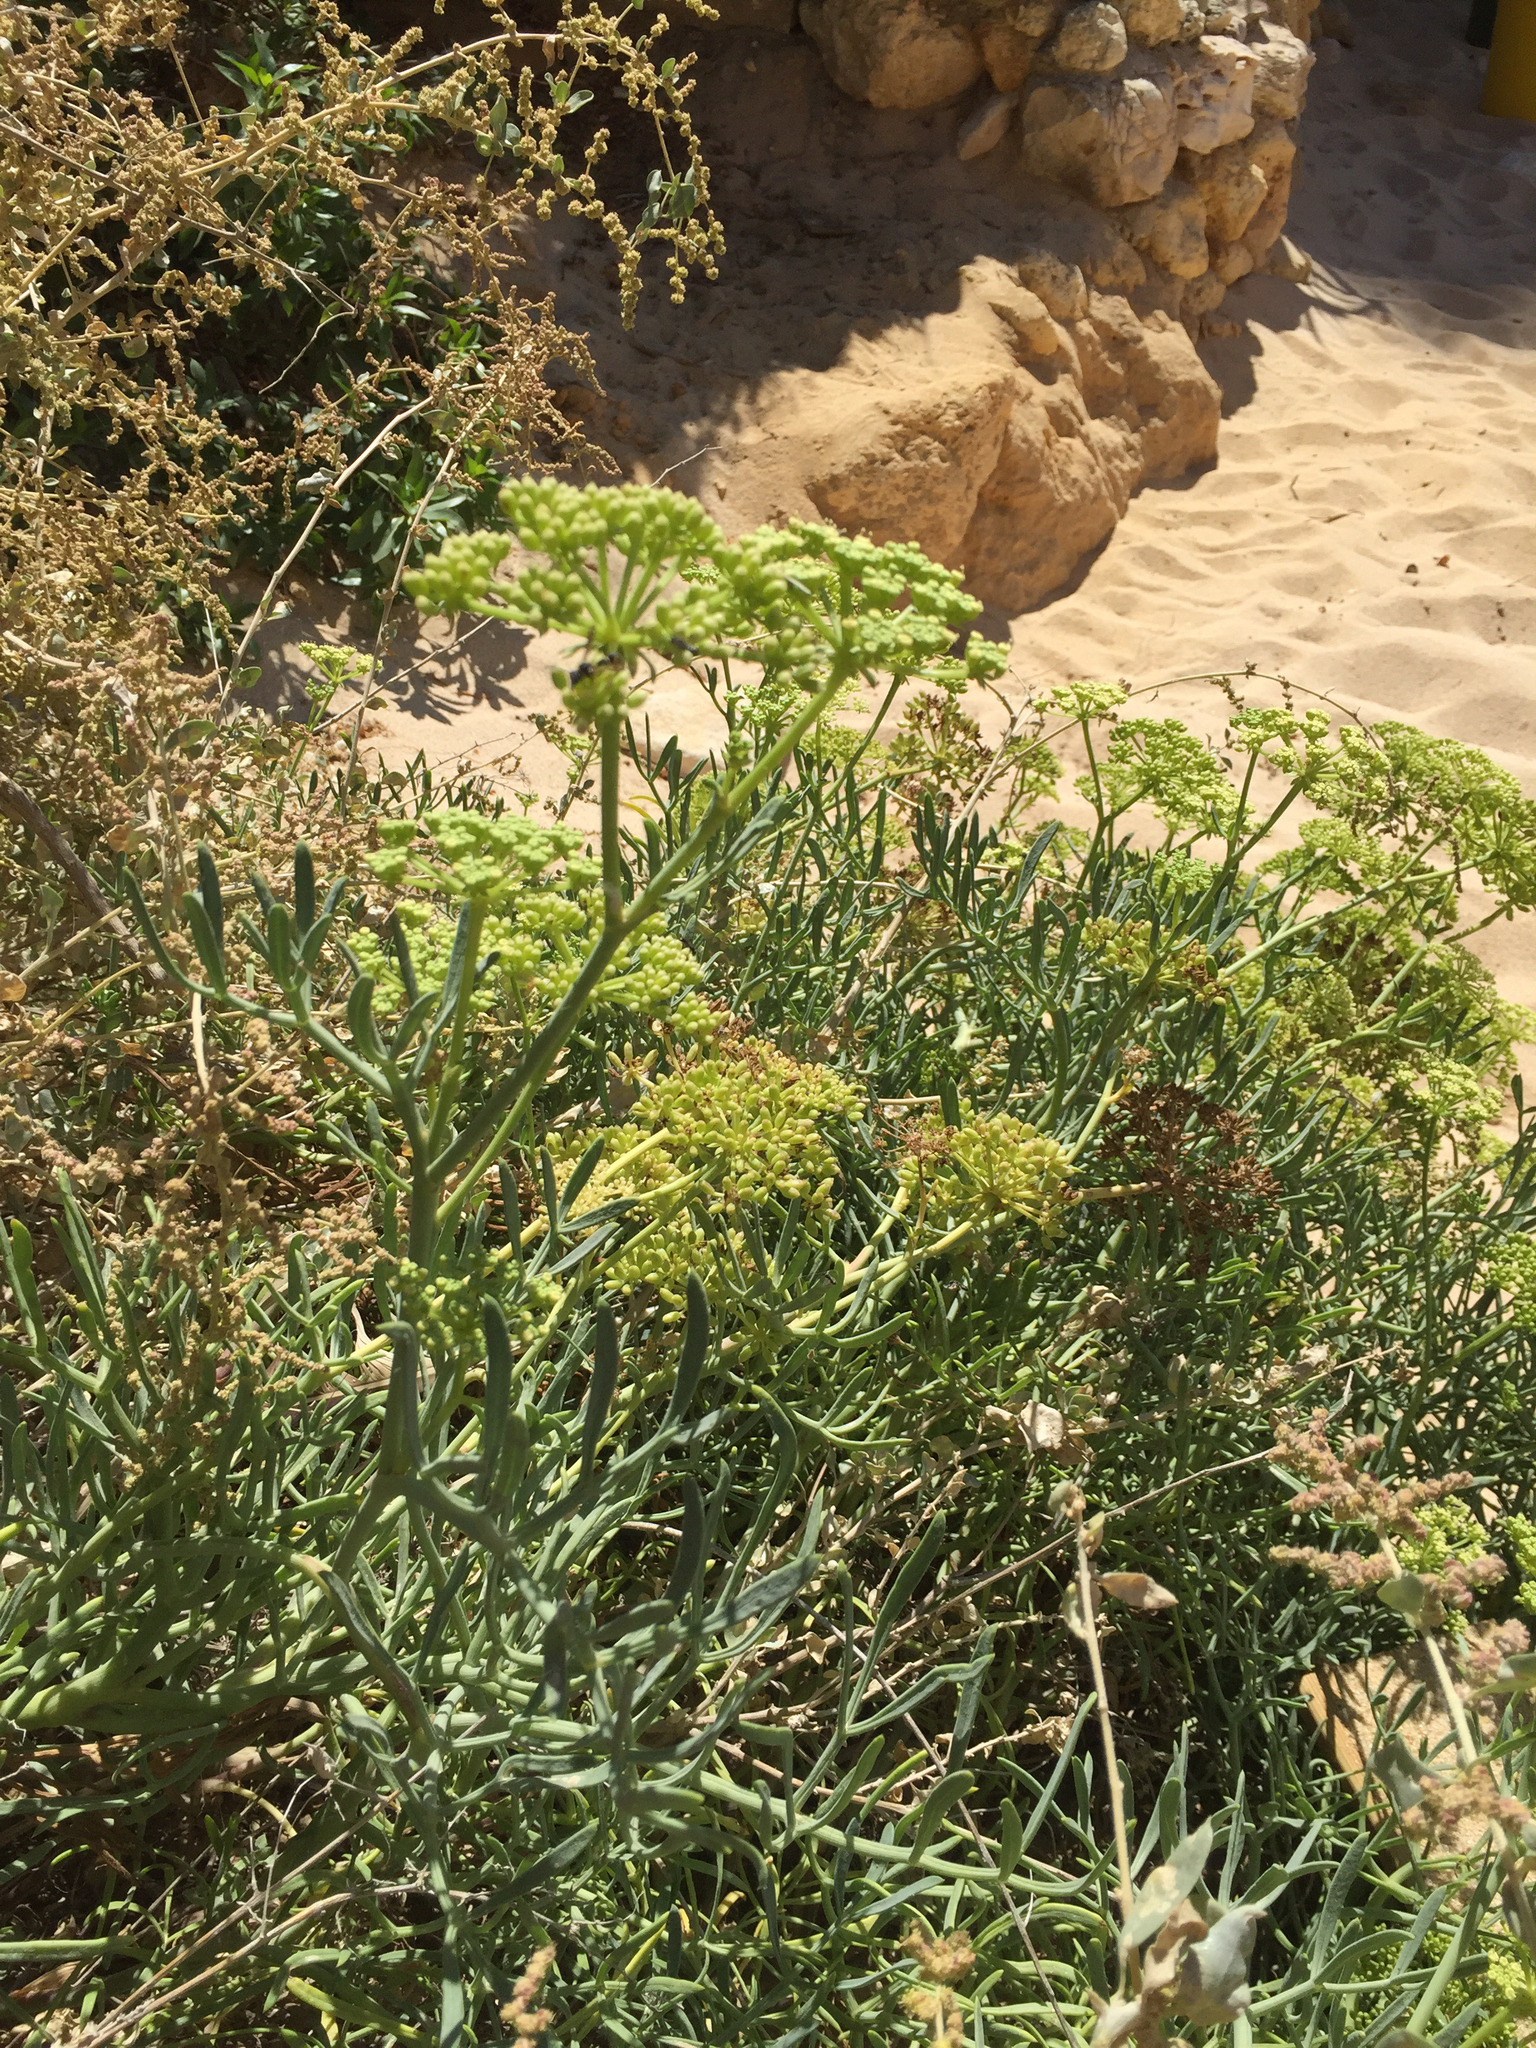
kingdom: Plantae
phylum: Tracheophyta
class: Magnoliopsida
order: Apiales
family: Apiaceae
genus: Crithmum
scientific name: Crithmum maritimum
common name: Rock samphire
